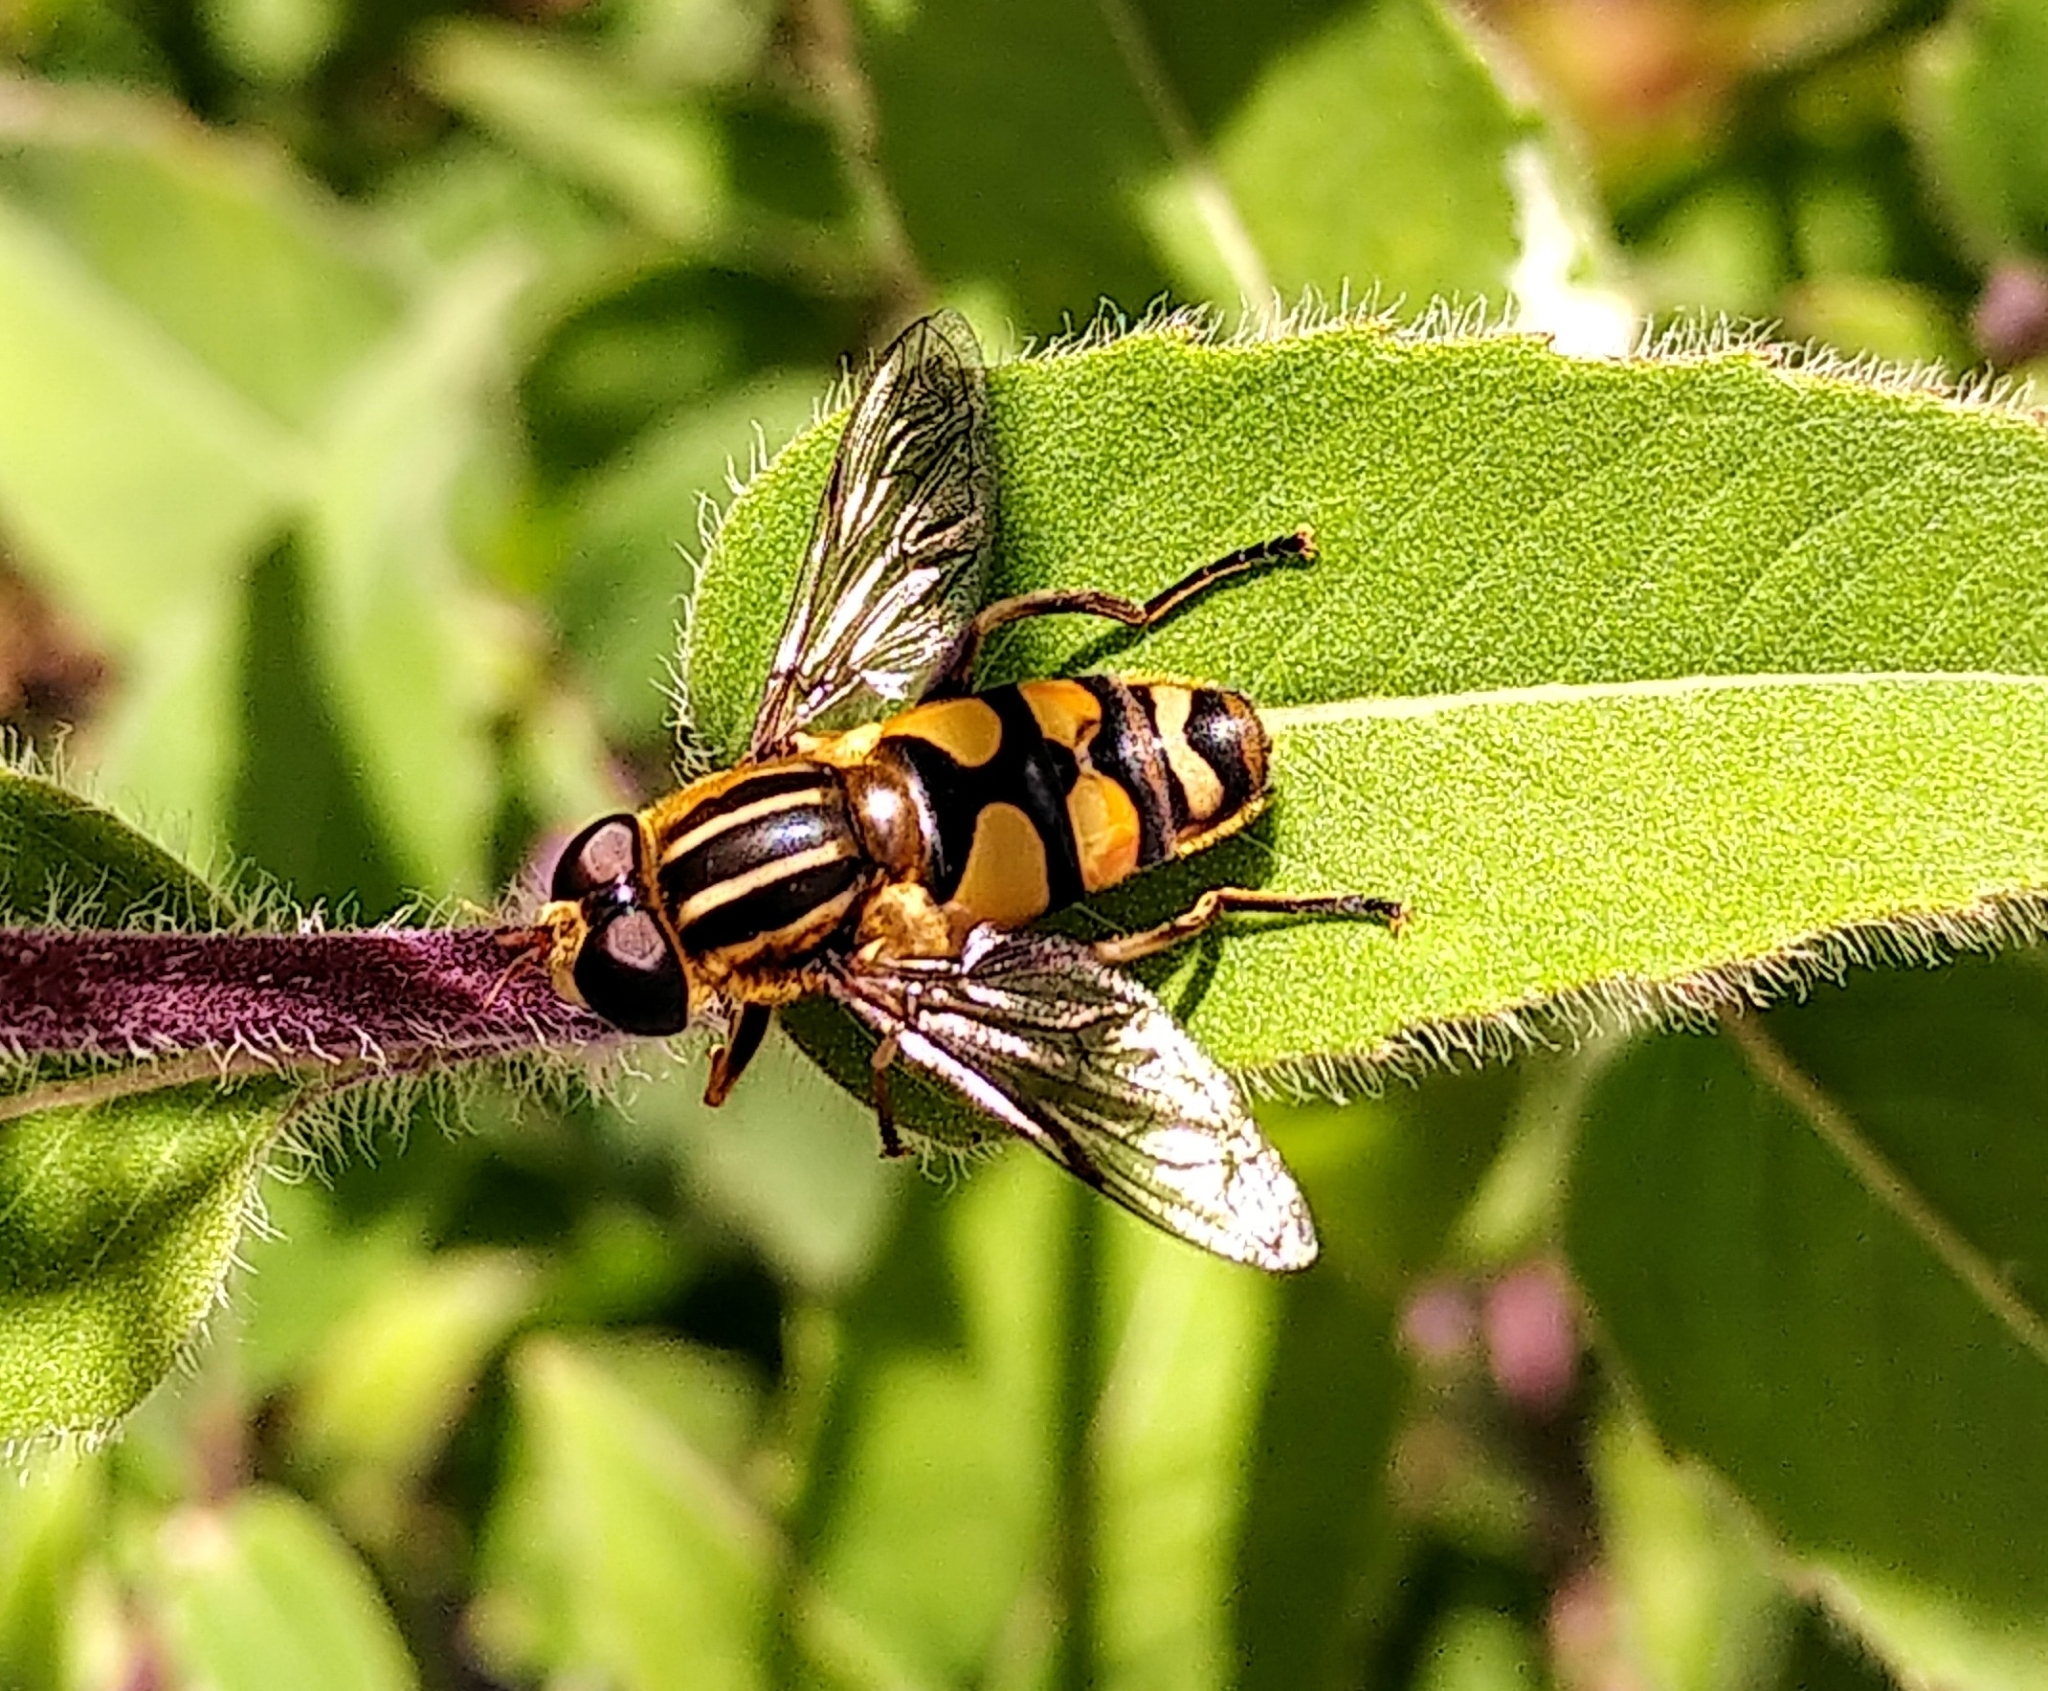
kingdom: Animalia
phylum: Arthropoda
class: Insecta
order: Diptera
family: Syrphidae
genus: Helophilus
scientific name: Helophilus fasciatus
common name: Narrow-headed marsh fly
